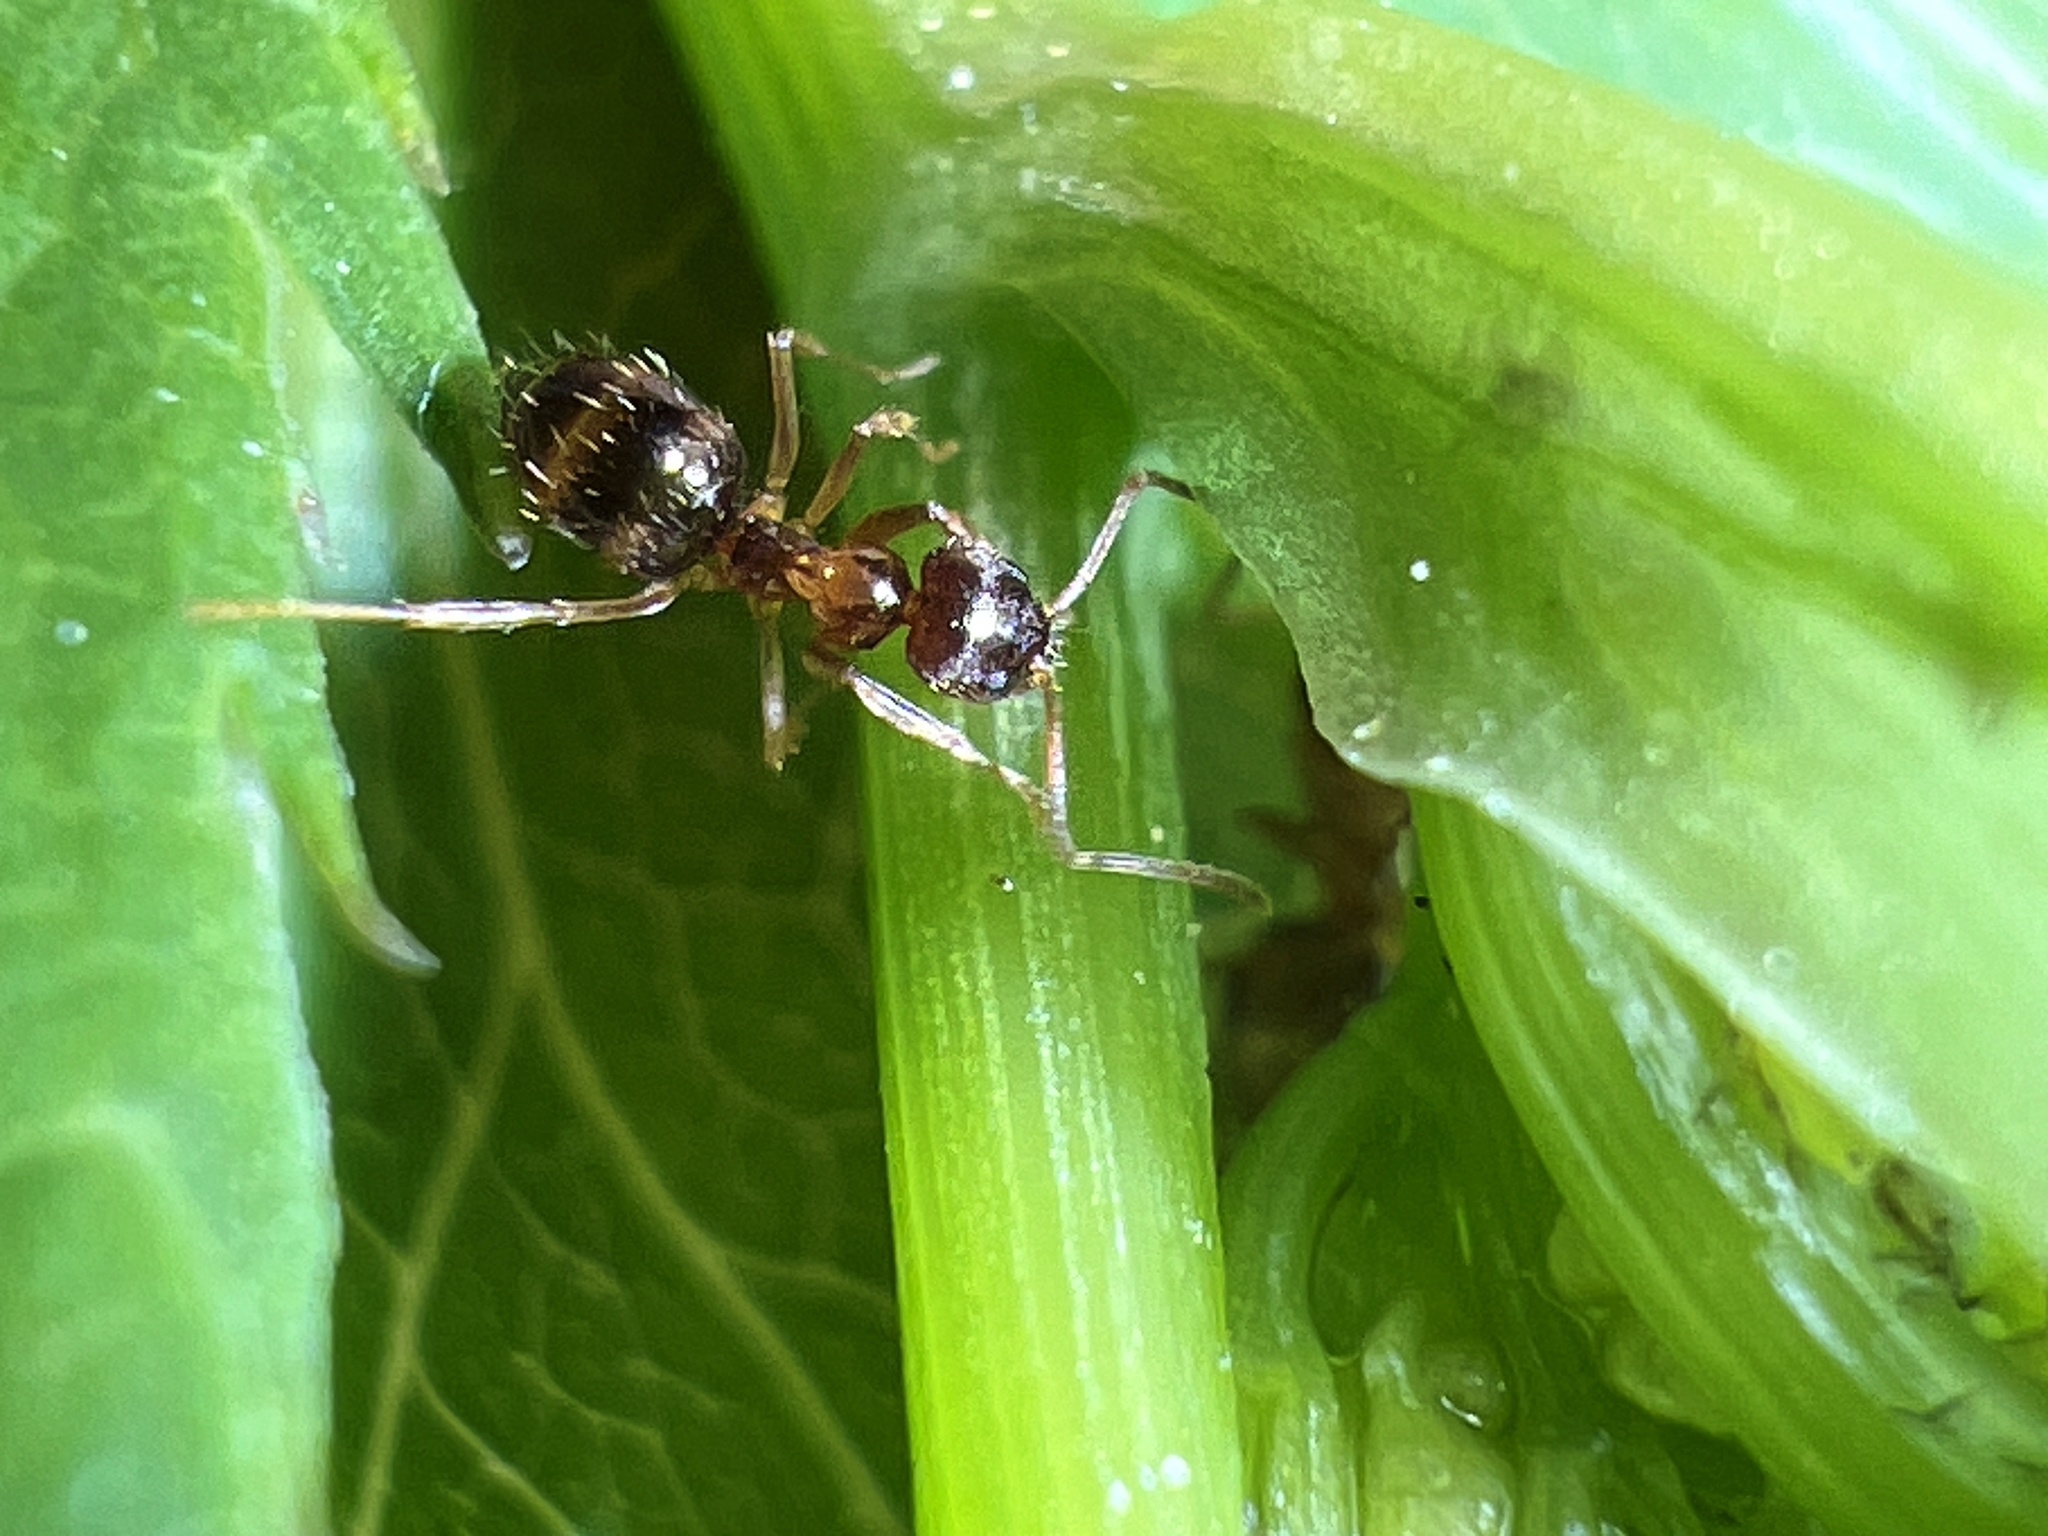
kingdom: Animalia
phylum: Arthropoda
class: Insecta
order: Hymenoptera
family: Formicidae
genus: Paratrechina
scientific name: Paratrechina flavipes
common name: Eastern asian formicine ant
